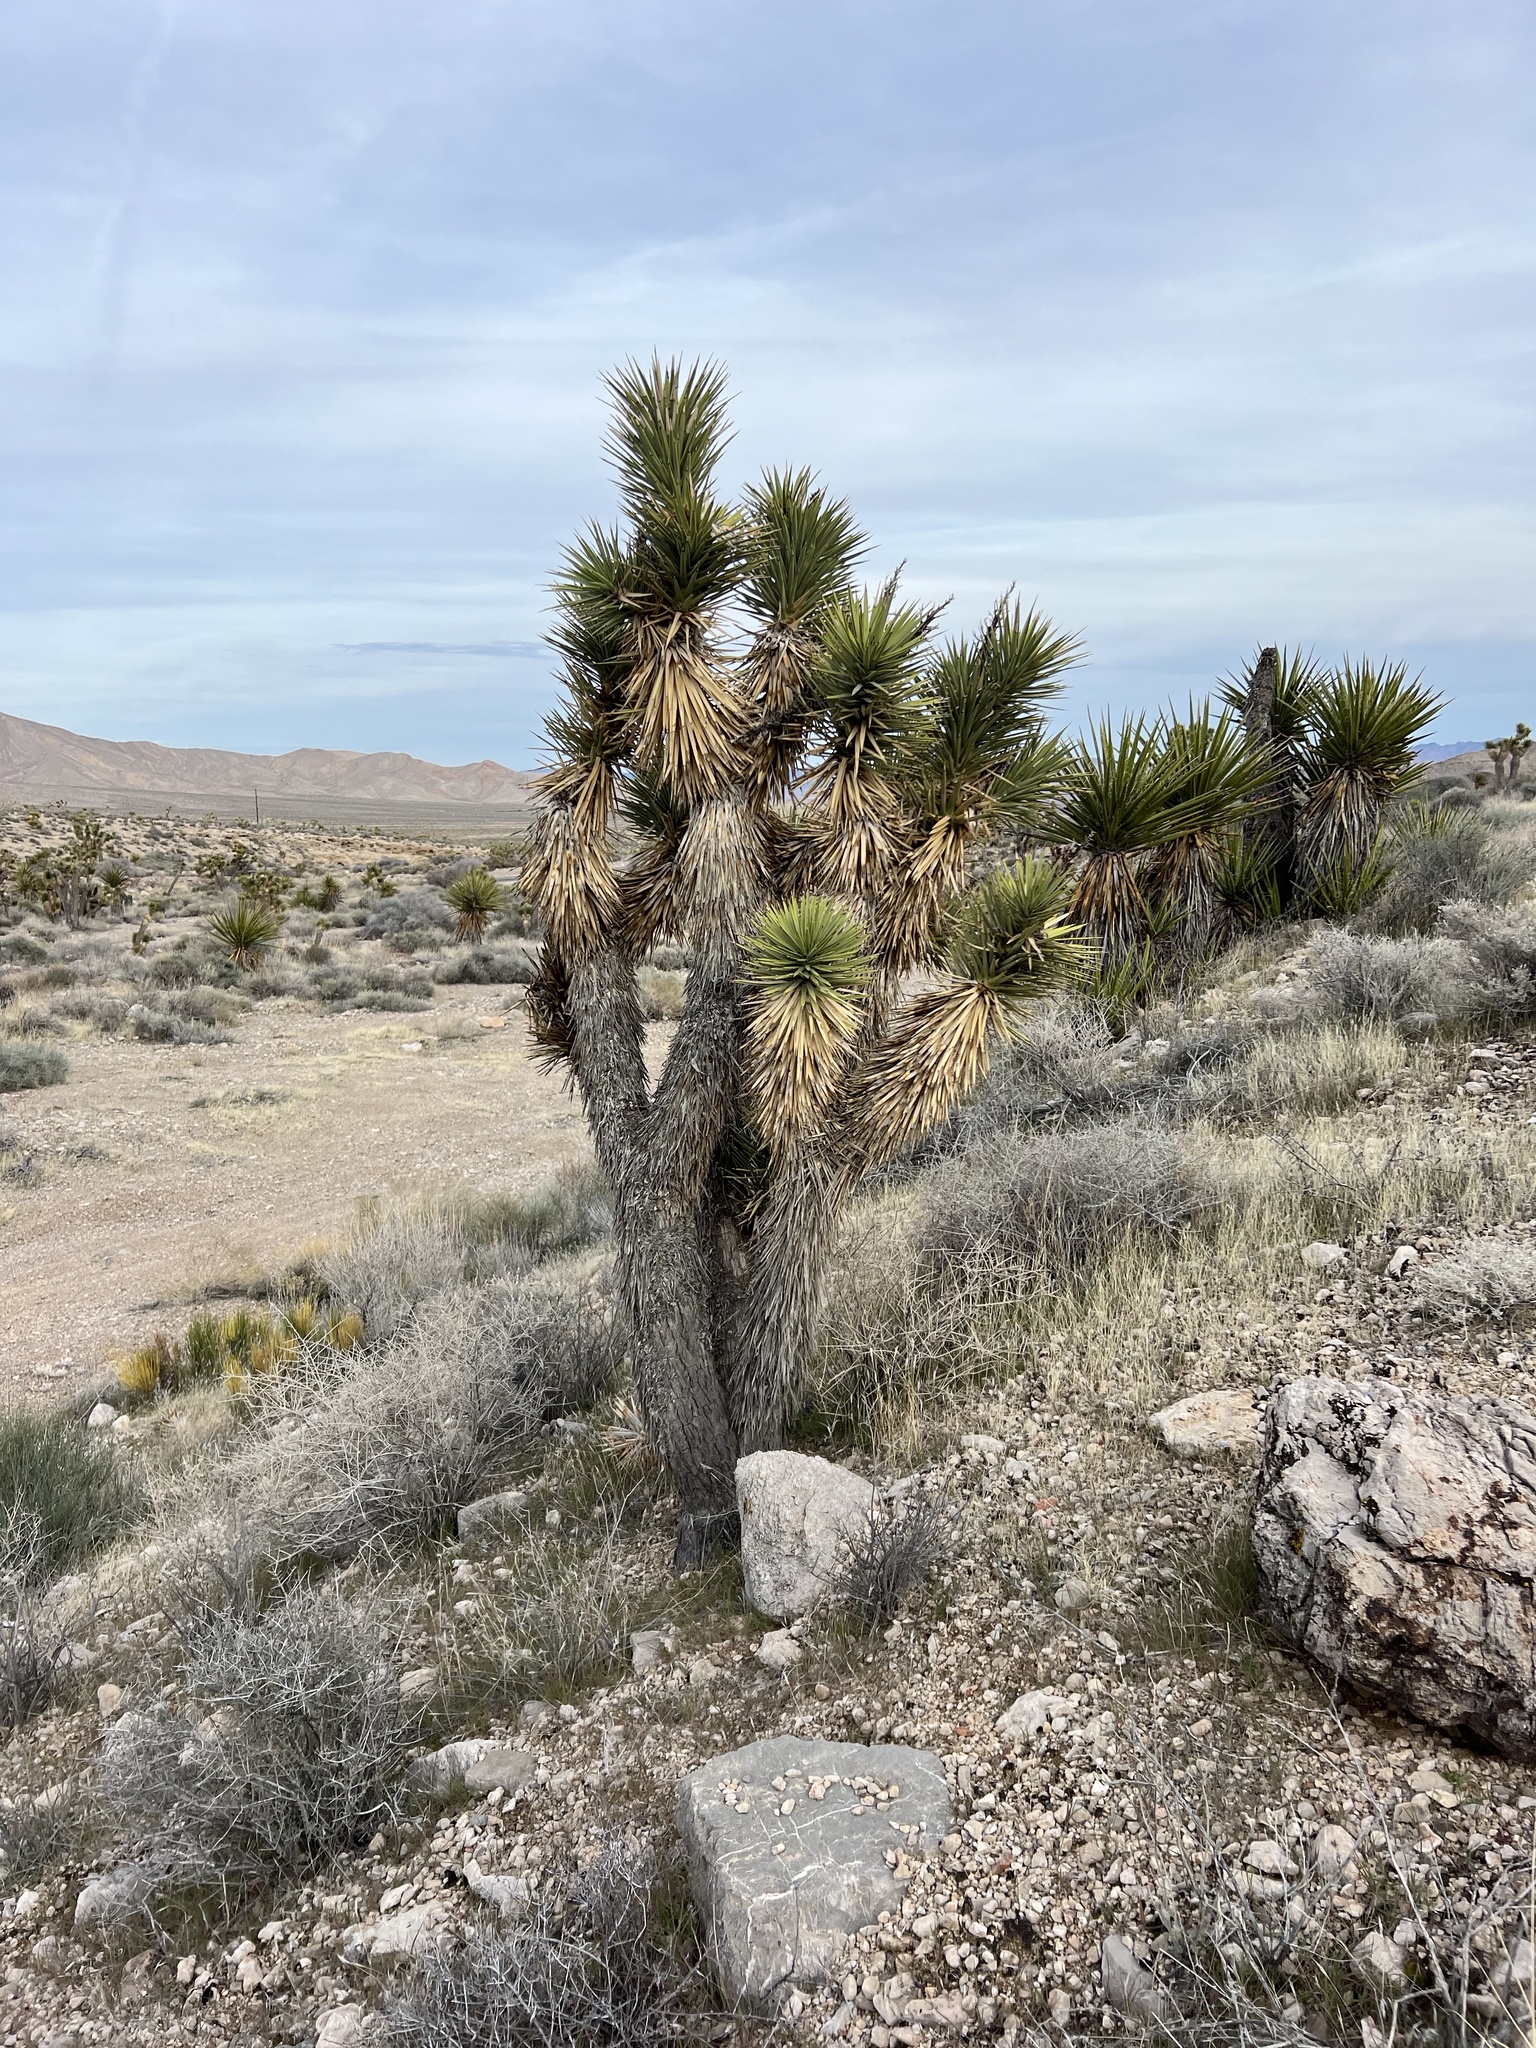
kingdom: Plantae
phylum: Tracheophyta
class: Liliopsida
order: Asparagales
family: Asparagaceae
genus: Yucca
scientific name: Yucca brevifolia
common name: Joshua tree
